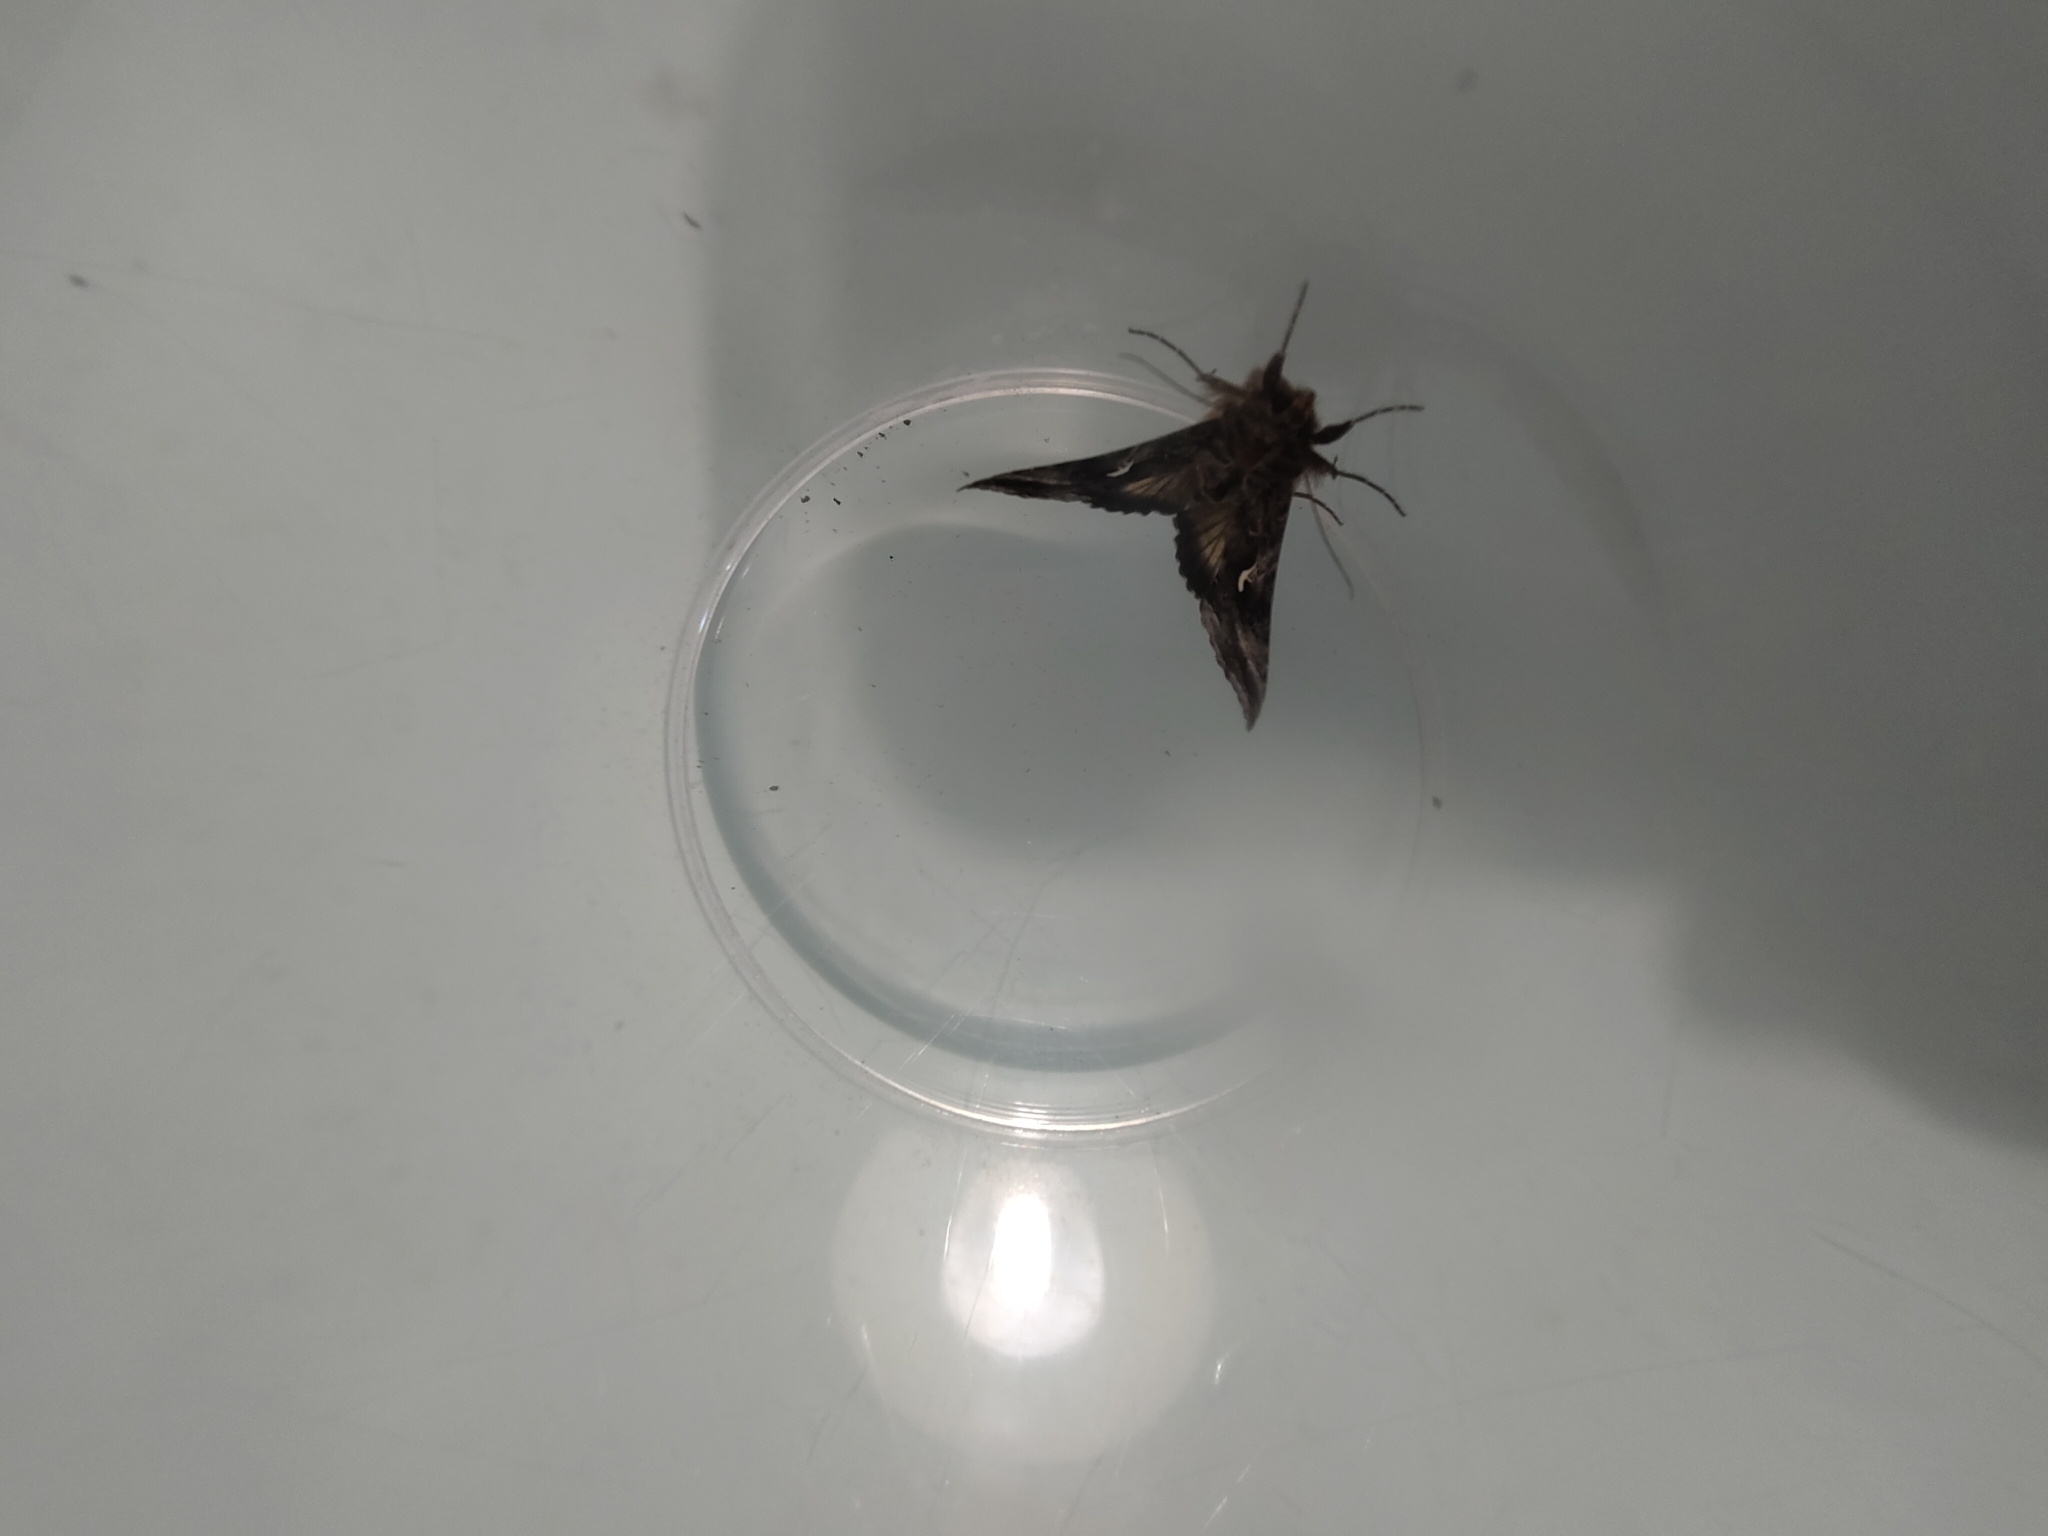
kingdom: Animalia
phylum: Arthropoda
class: Insecta
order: Lepidoptera
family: Noctuidae
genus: Autographa
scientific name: Autographa gamma
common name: Silver y
